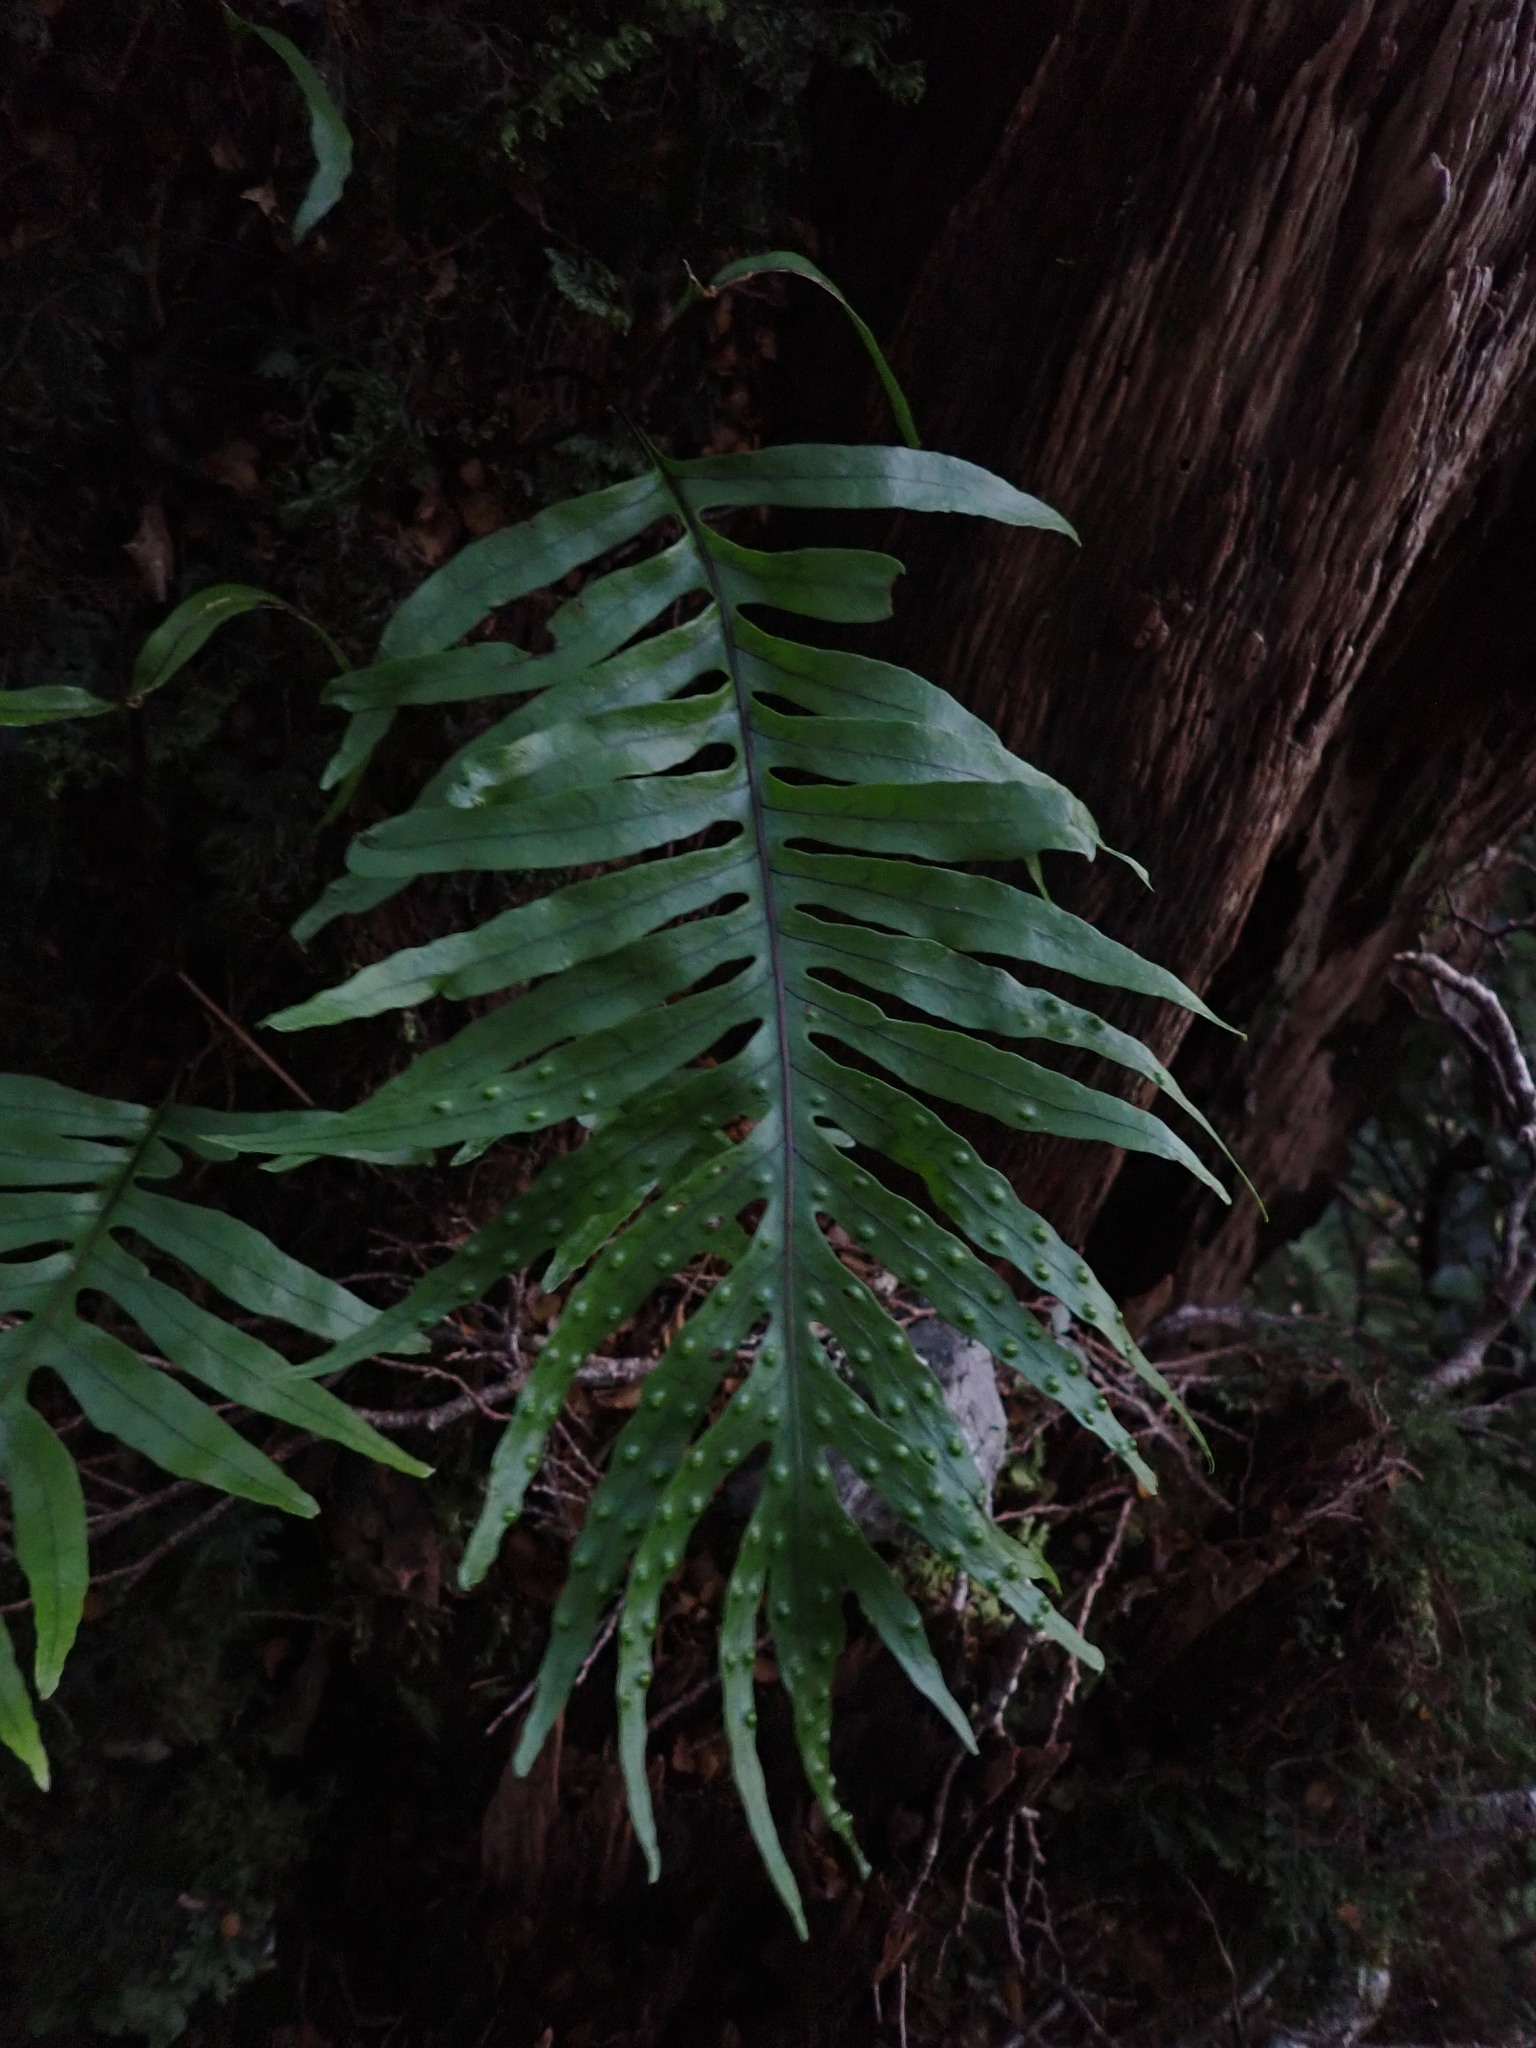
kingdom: Plantae
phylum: Tracheophyta
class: Polypodiopsida
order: Polypodiales
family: Polypodiaceae
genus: Lecanopteris
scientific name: Lecanopteris novae-zealandiae
